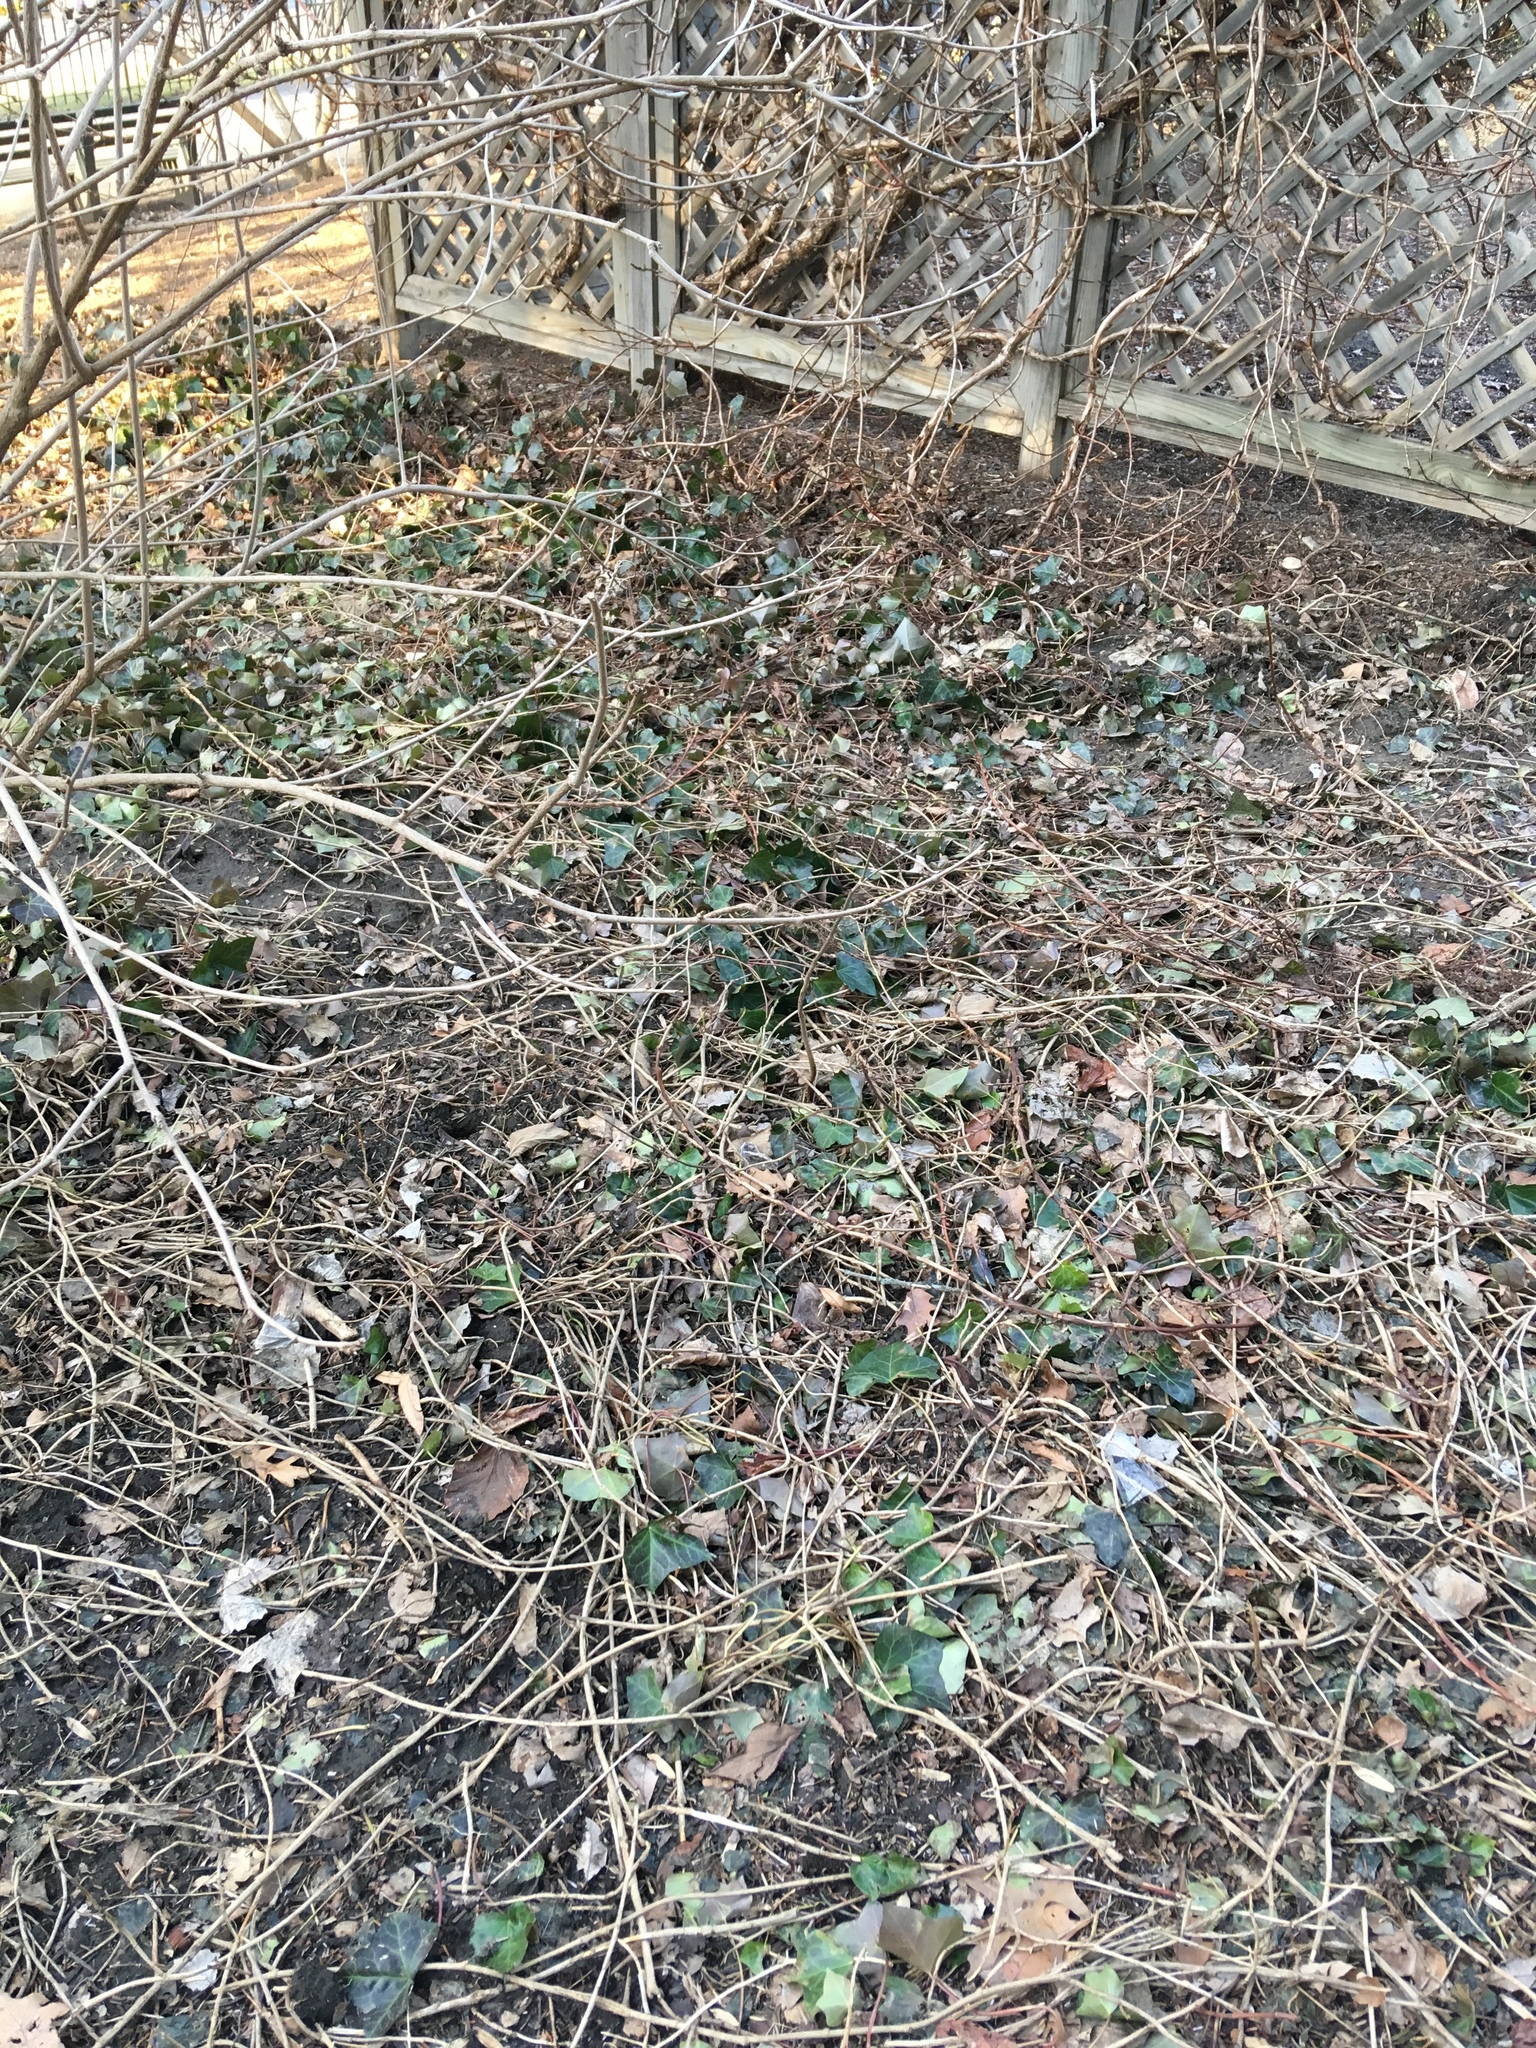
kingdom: Plantae
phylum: Tracheophyta
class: Magnoliopsida
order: Apiales
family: Araliaceae
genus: Hedera
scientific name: Hedera helix
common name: Ivy
